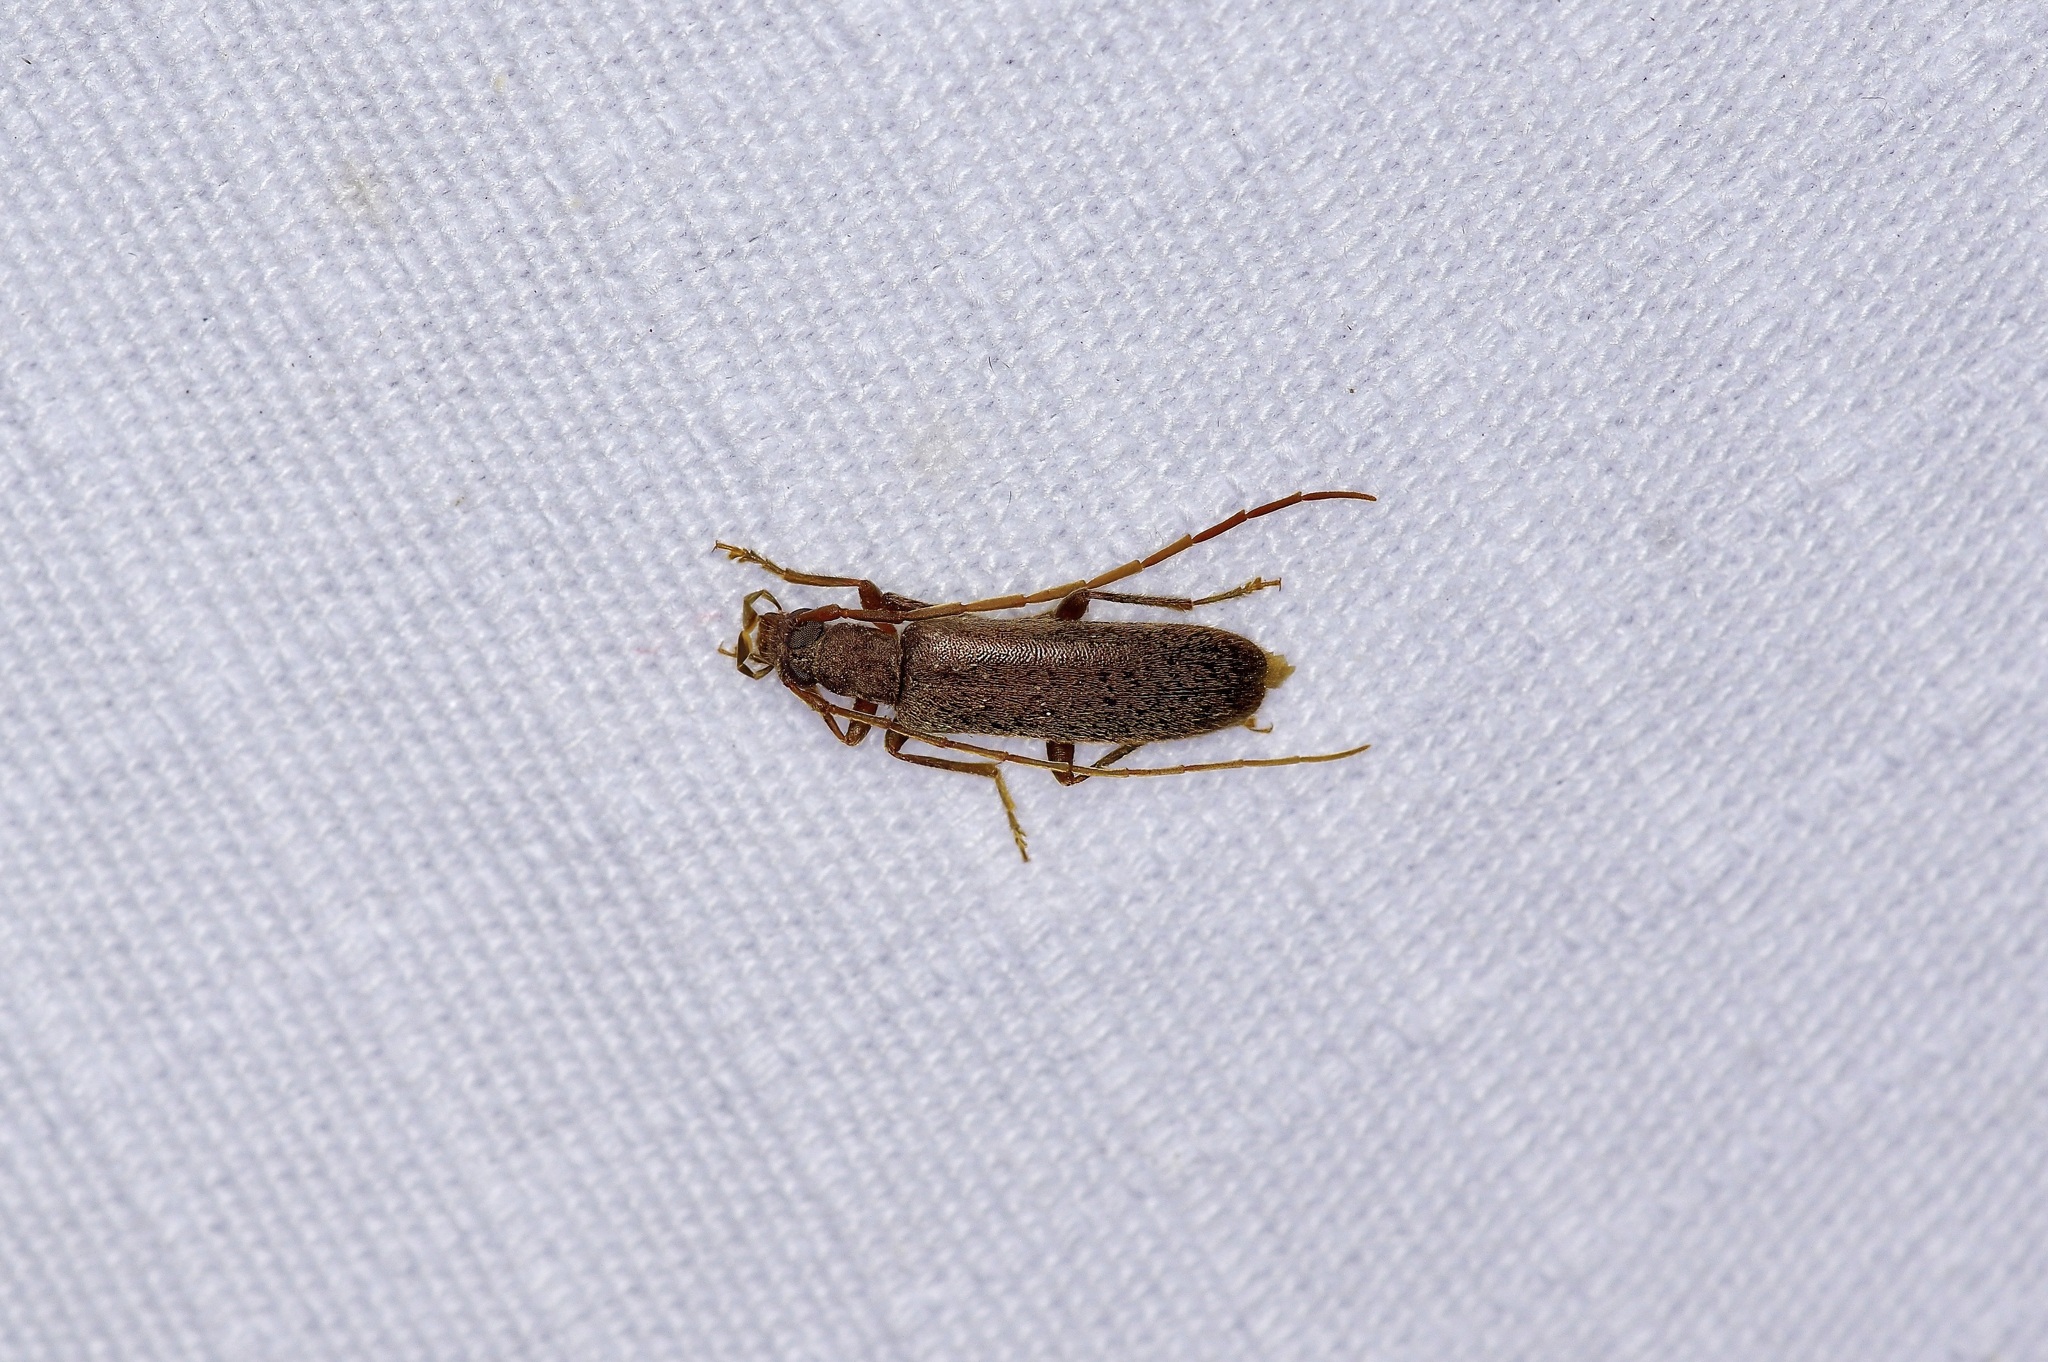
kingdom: Animalia
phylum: Arthropoda
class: Insecta
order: Coleoptera
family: Oedemeridae
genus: Sparedrus
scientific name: Sparedrus aspersus
